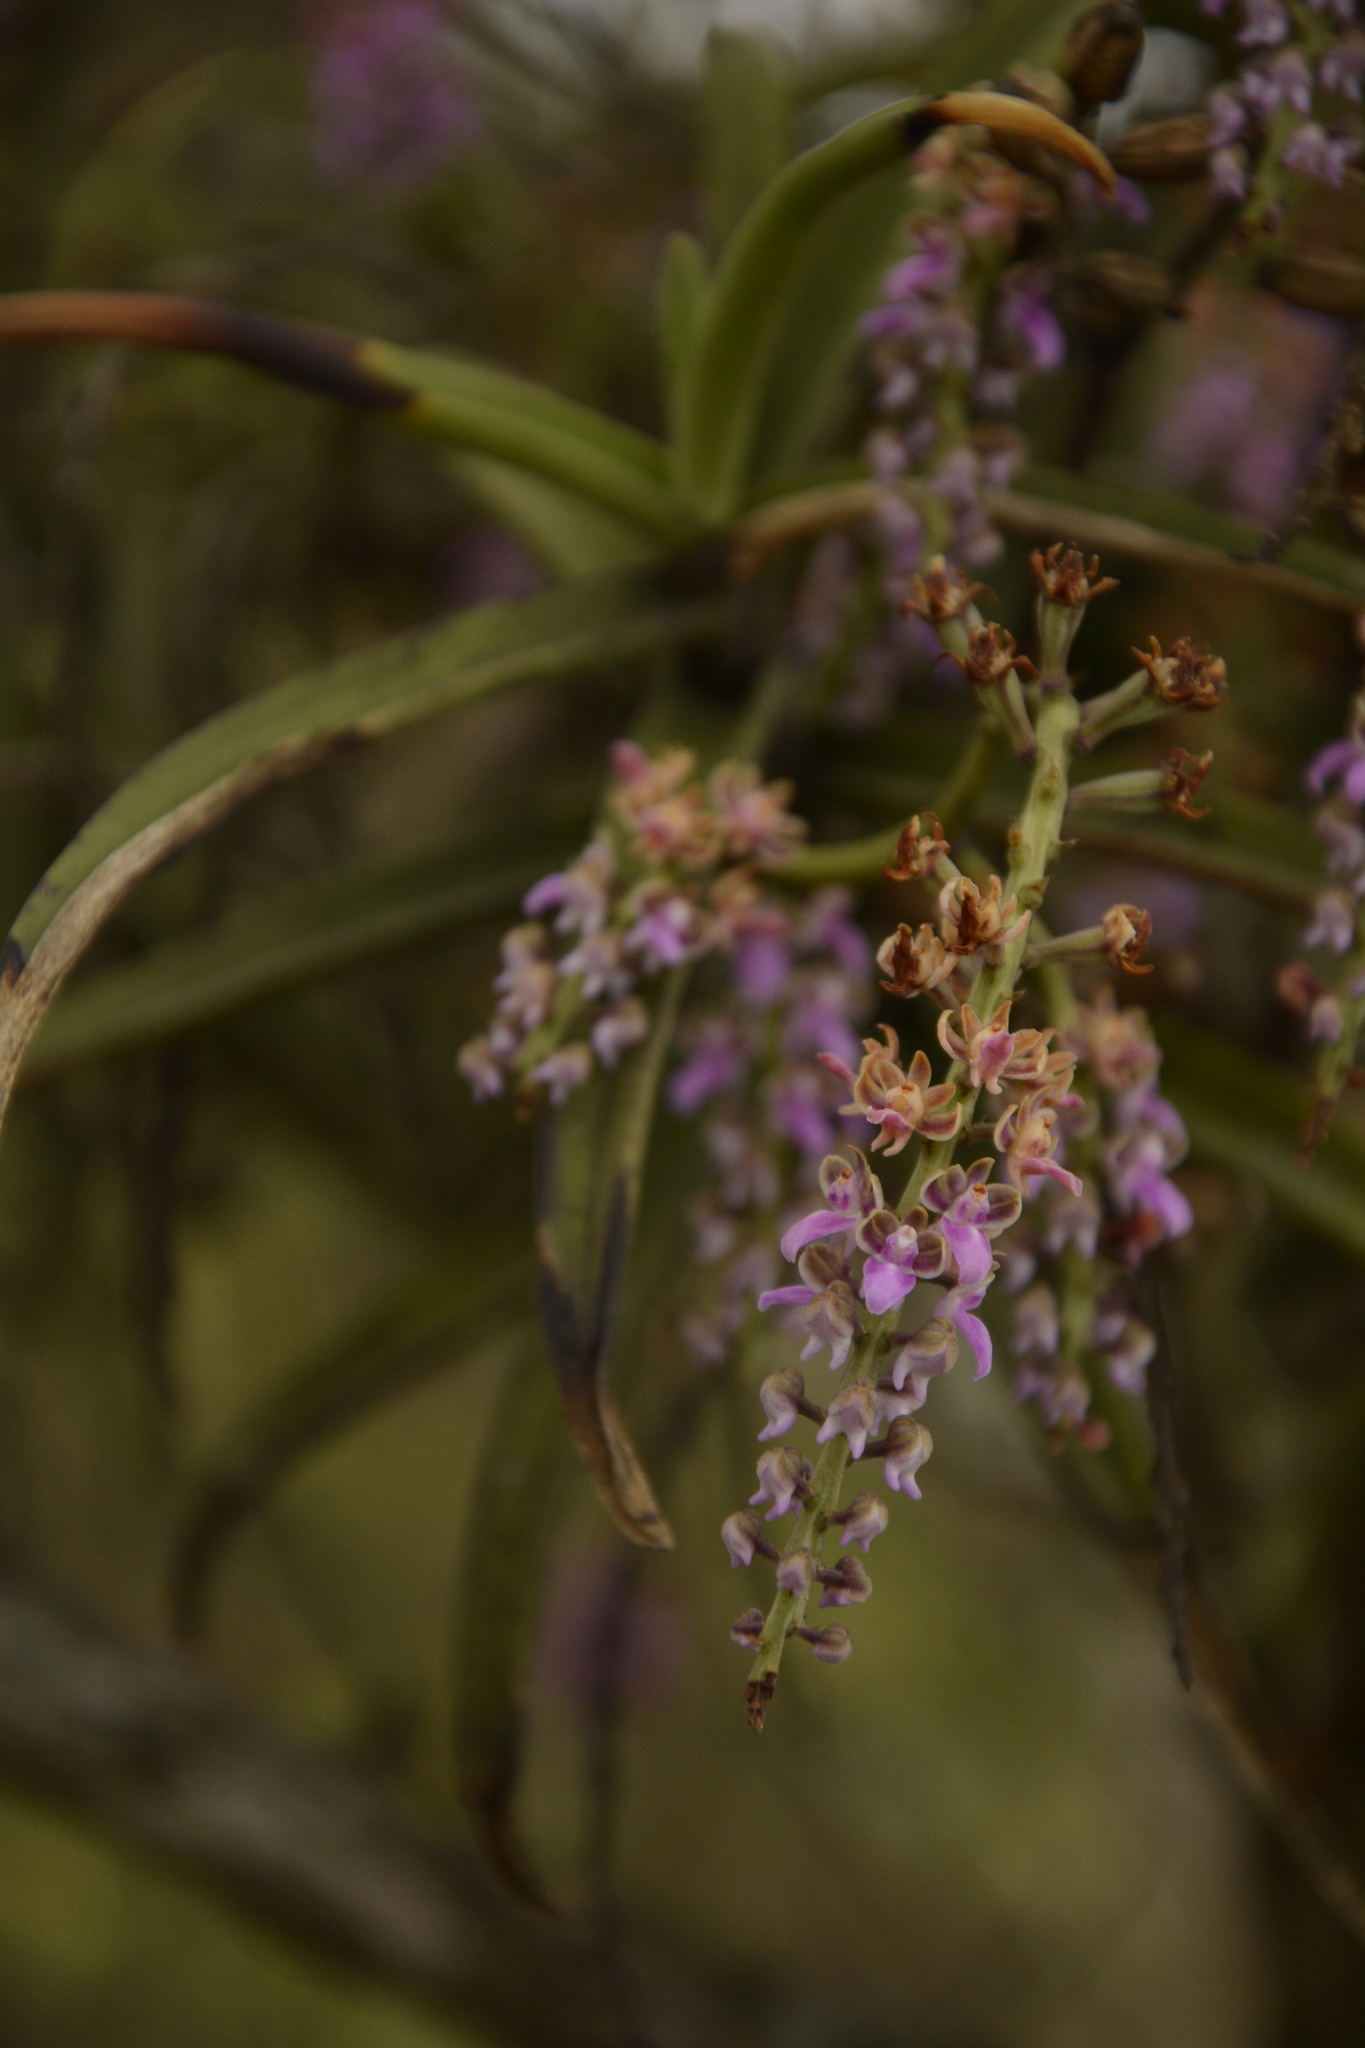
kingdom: Plantae
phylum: Tracheophyta
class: Liliopsida
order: Asparagales
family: Orchidaceae
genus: Diplocentrum
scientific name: Diplocentrum recurvum
